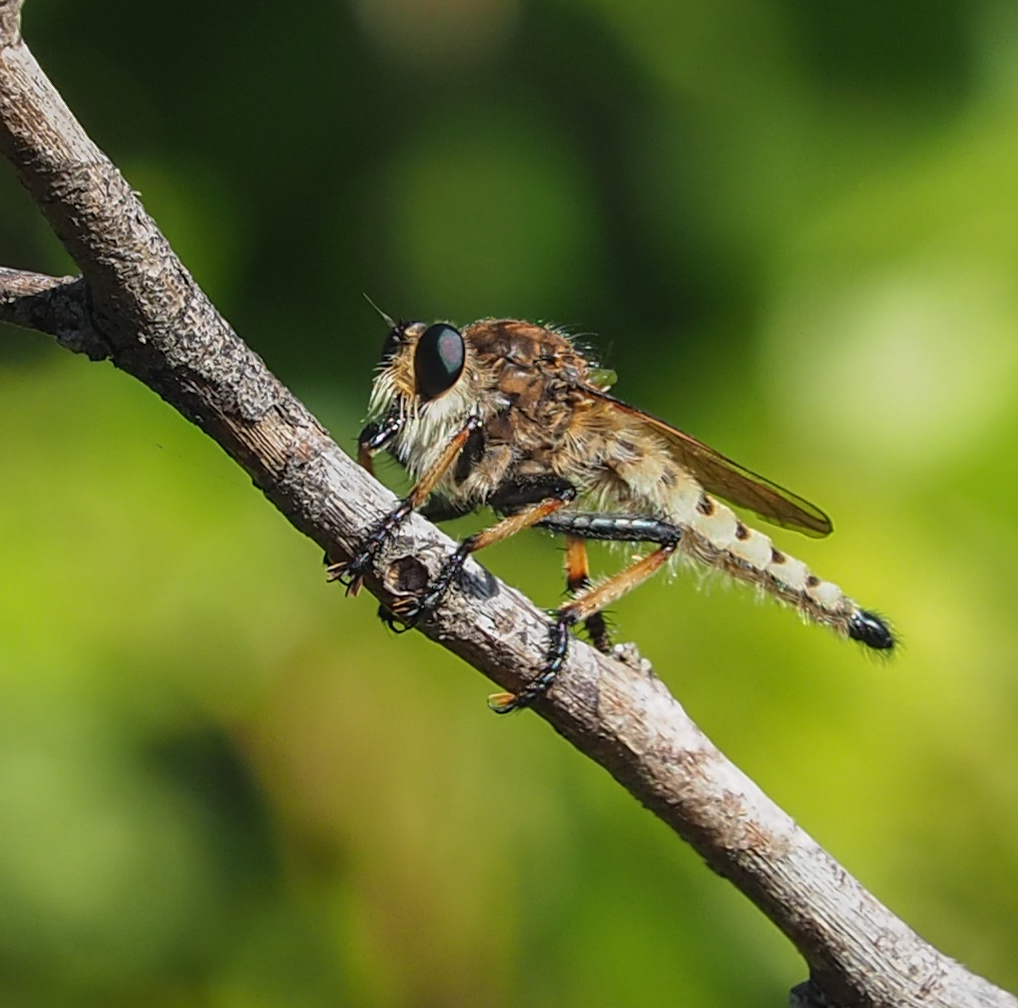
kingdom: Animalia
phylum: Arthropoda
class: Insecta
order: Diptera
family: Asilidae
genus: Promachus
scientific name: Promachus rufipes
